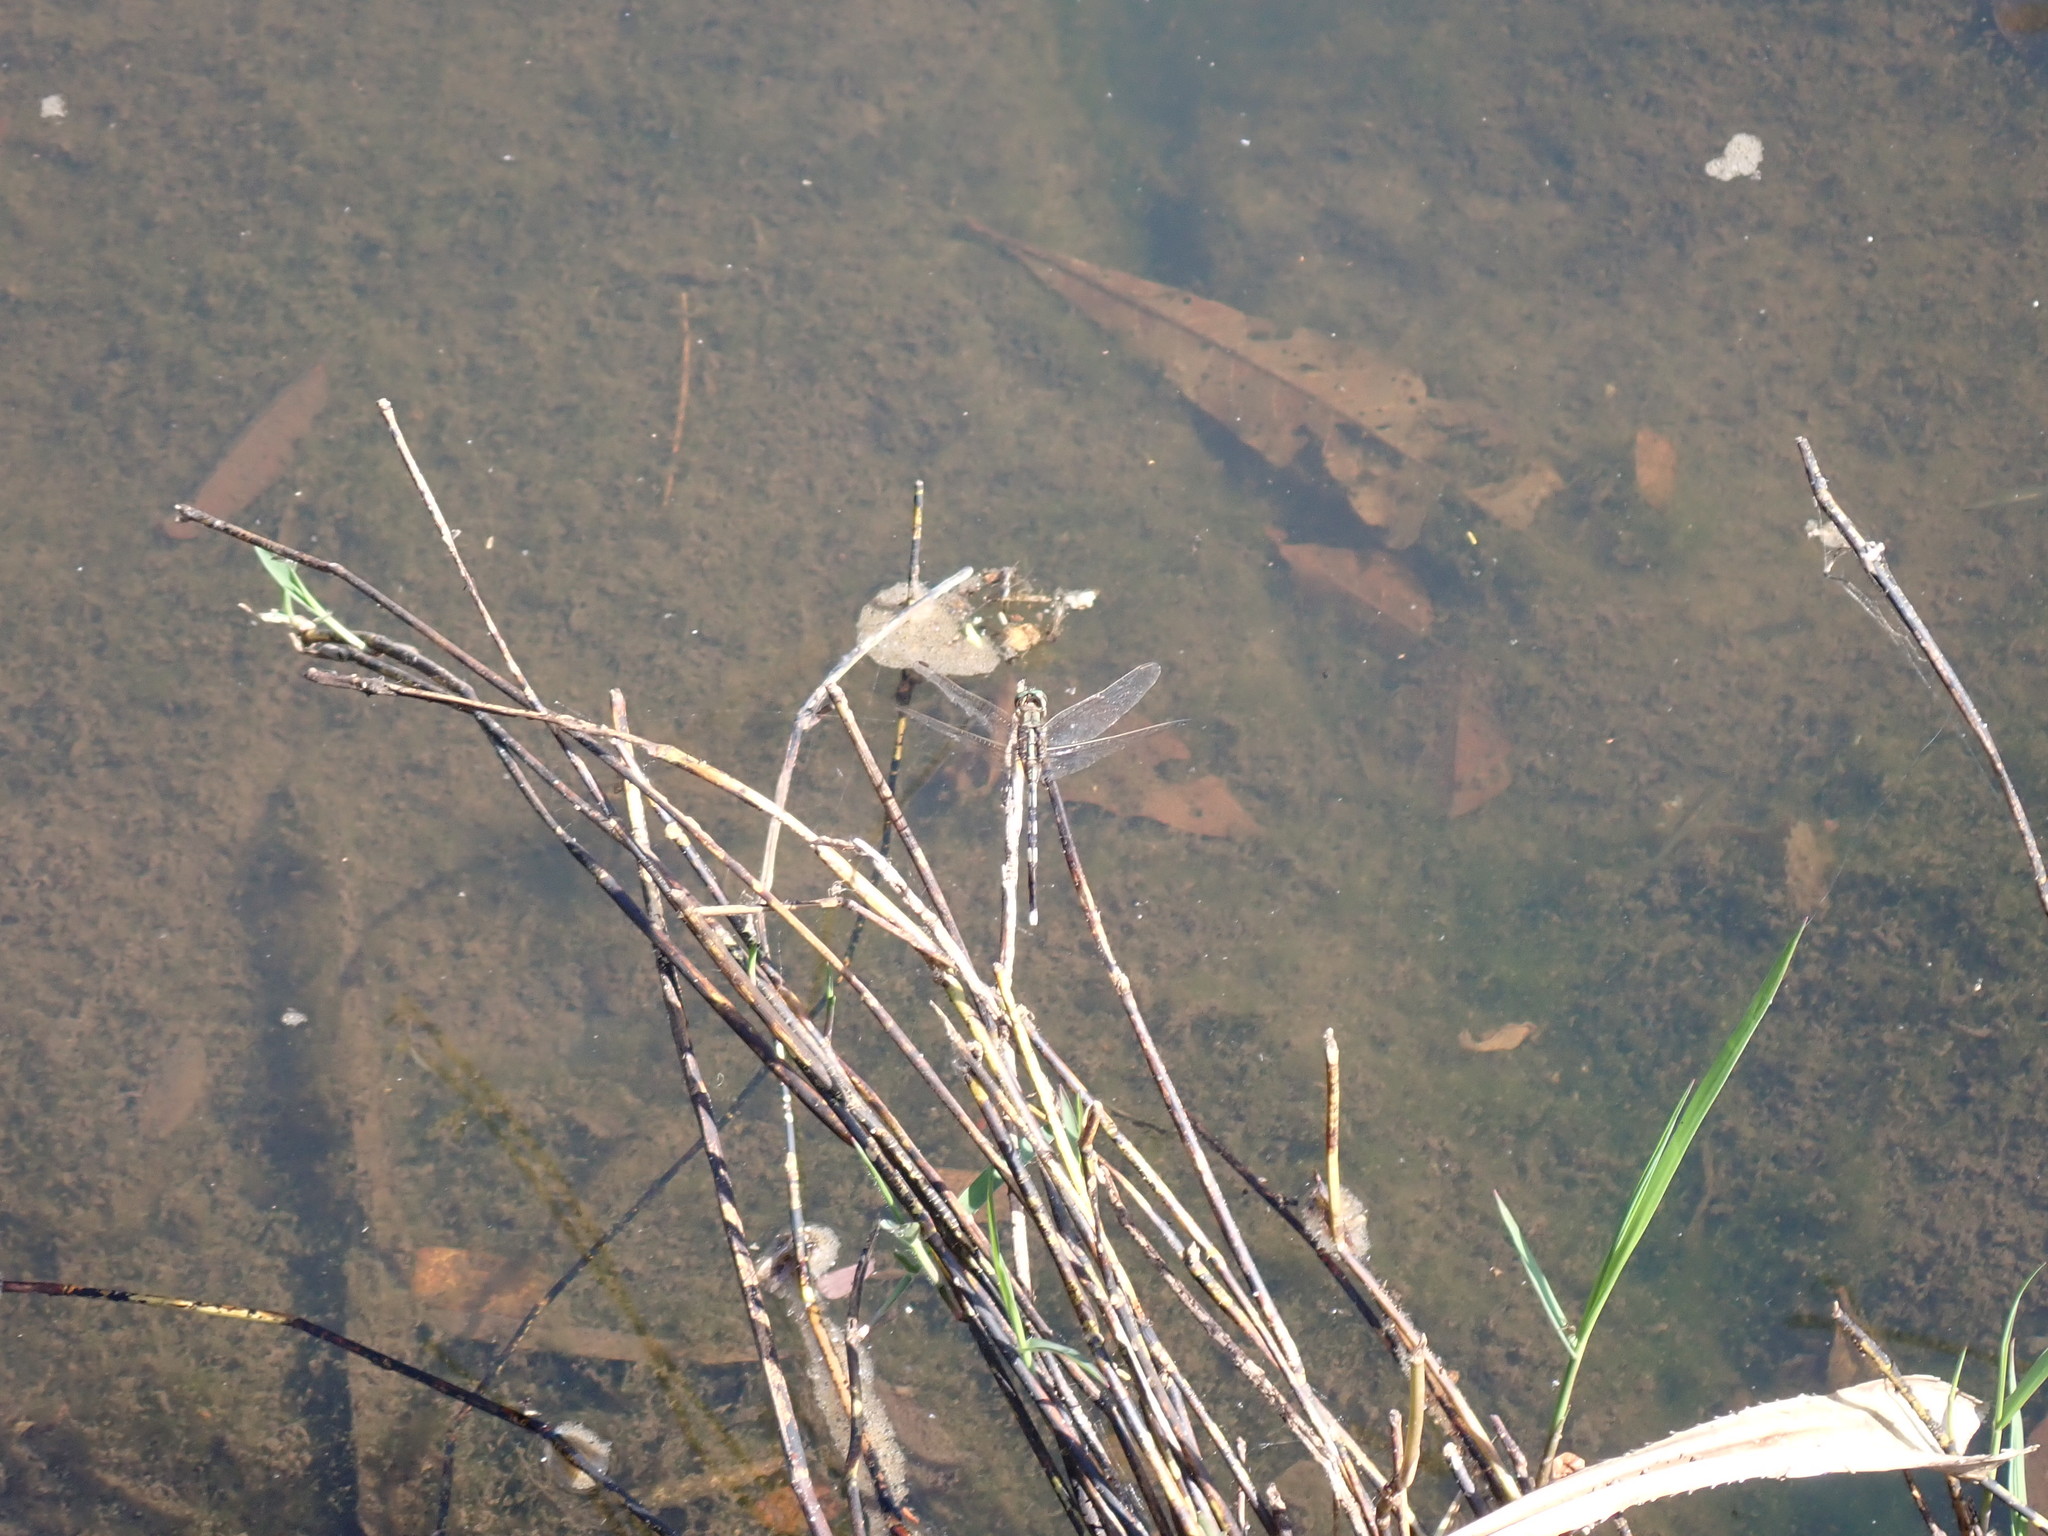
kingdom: Animalia
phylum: Arthropoda
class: Insecta
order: Odonata
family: Libellulidae
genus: Orthetrum
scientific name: Orthetrum sabina
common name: Slender skimmer
